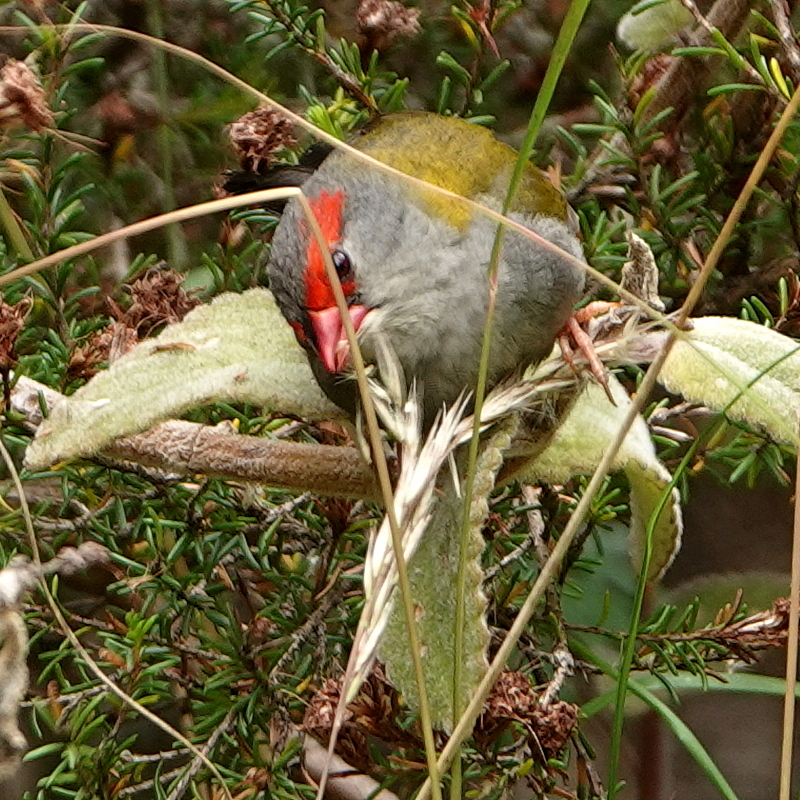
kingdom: Animalia
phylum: Chordata
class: Aves
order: Passeriformes
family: Estrildidae
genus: Neochmia
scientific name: Neochmia temporalis
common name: Red-browed finch
